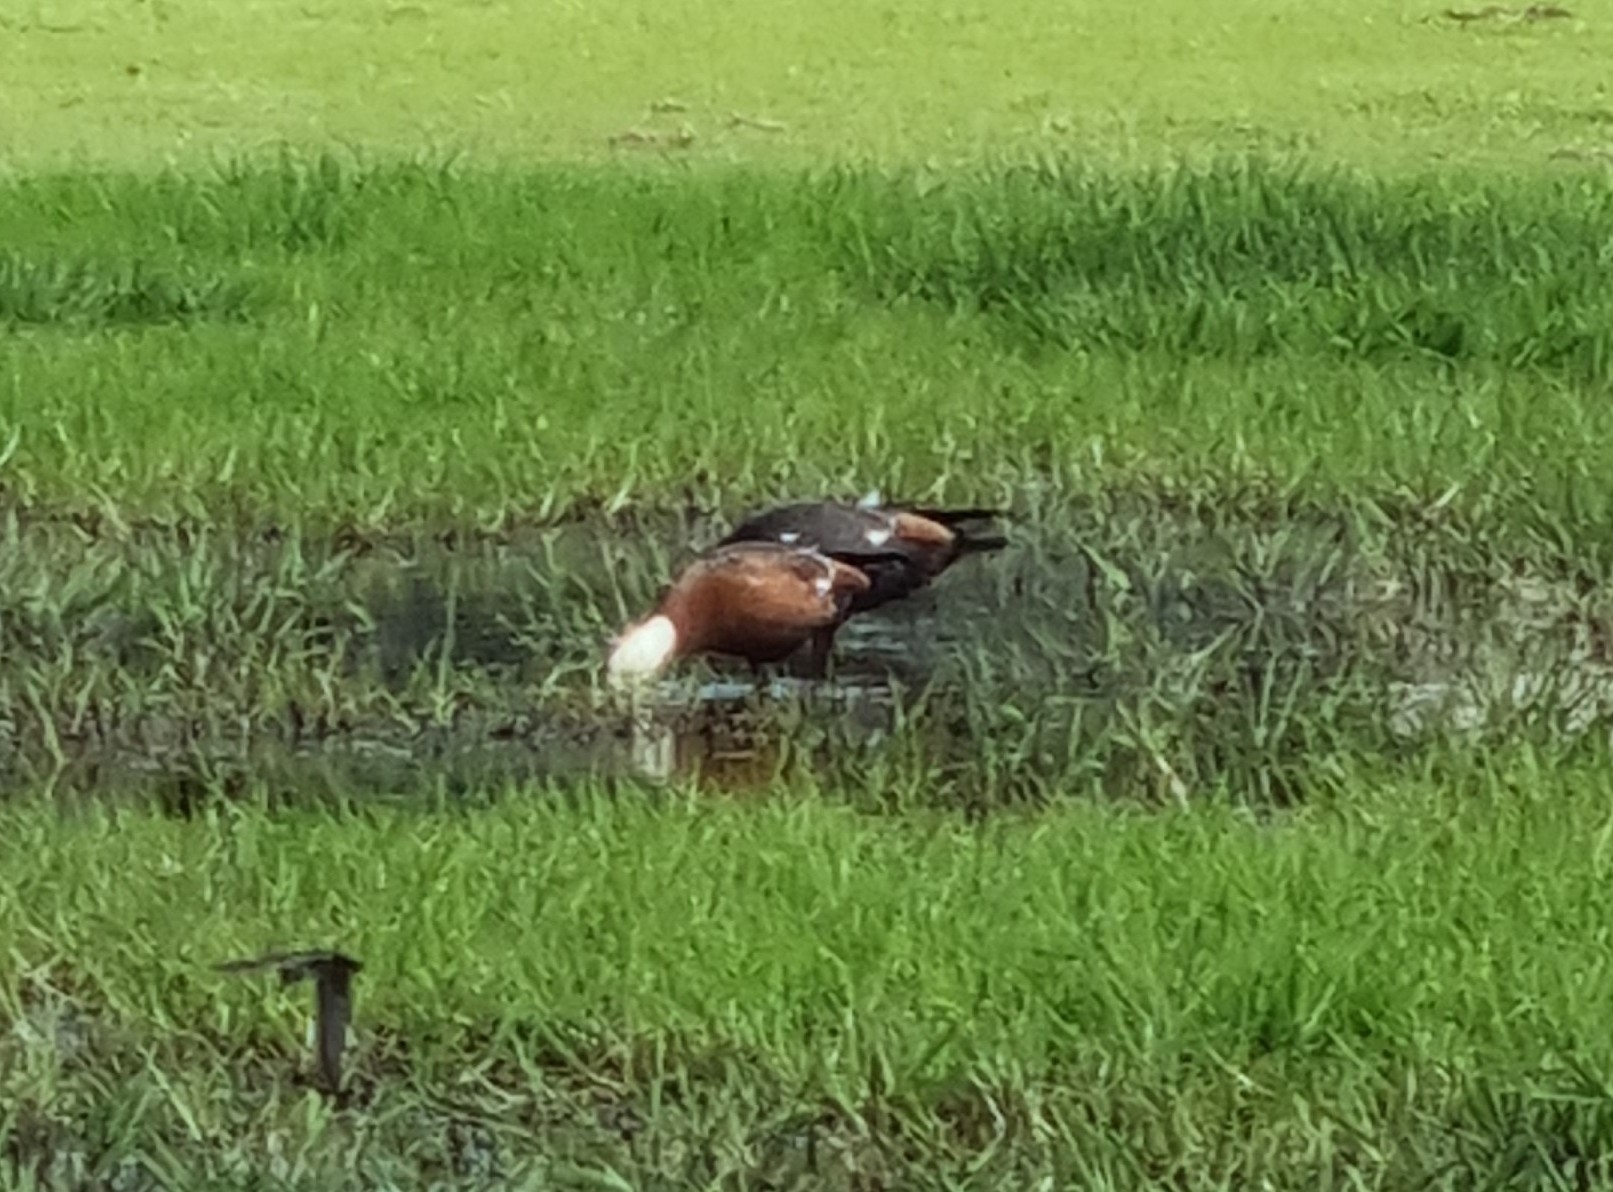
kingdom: Animalia
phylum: Chordata
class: Aves
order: Anseriformes
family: Anatidae
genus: Tadorna
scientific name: Tadorna variegata
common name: Paradise shelduck
